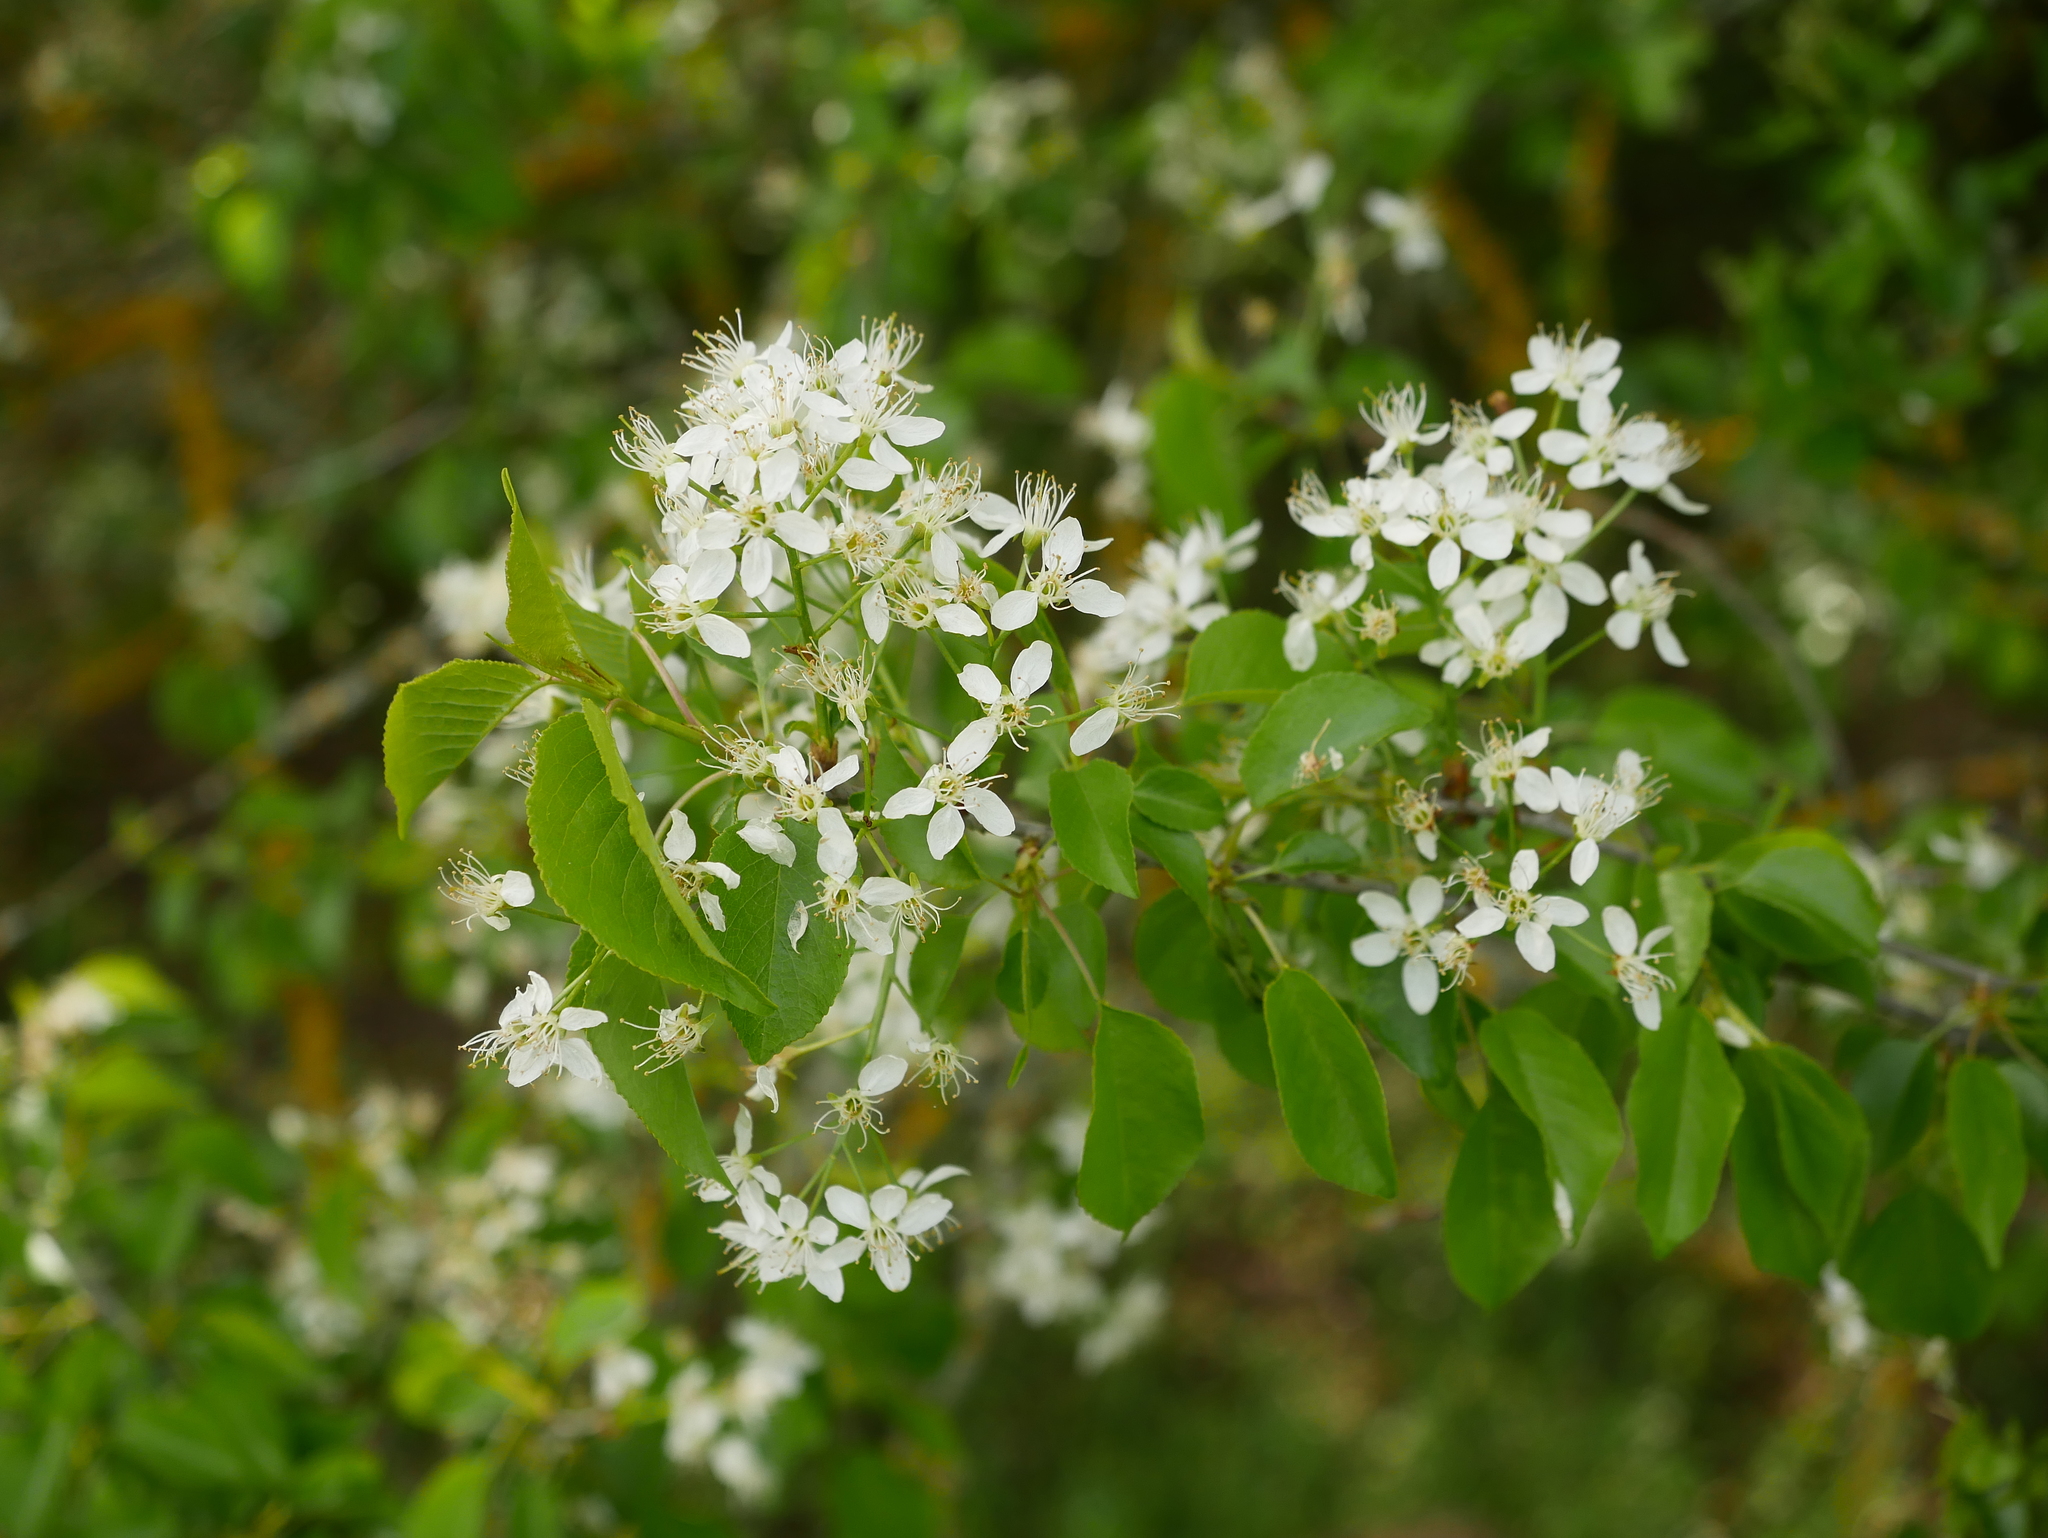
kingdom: Plantae
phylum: Tracheophyta
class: Magnoliopsida
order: Rosales
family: Rosaceae
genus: Prunus
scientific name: Prunus mahaleb
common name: Mahaleb cherry
